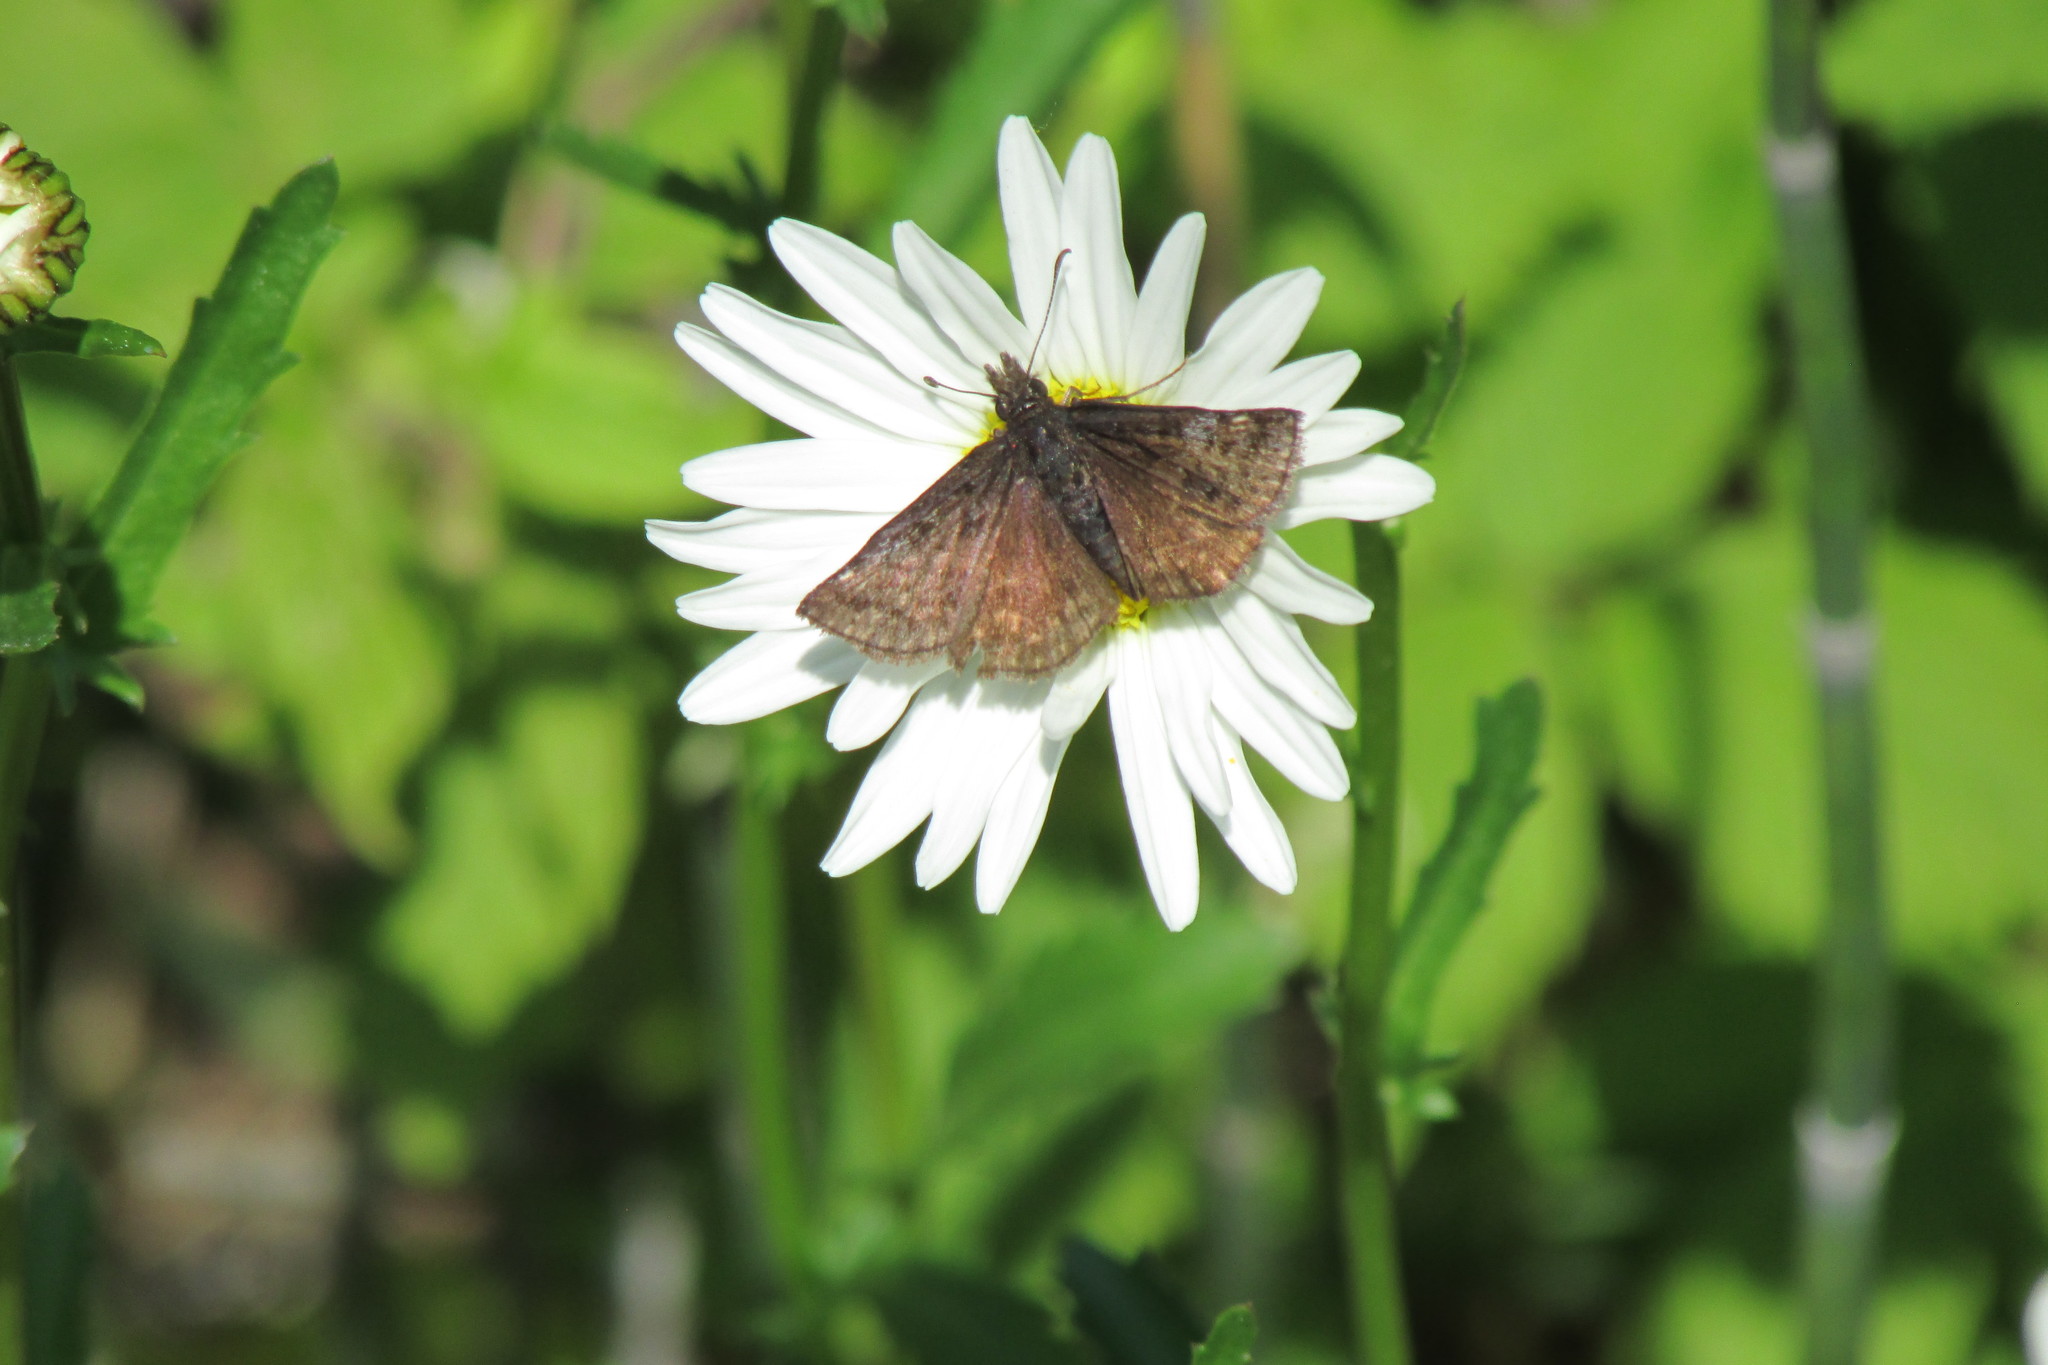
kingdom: Animalia
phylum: Arthropoda
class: Insecta
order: Lepidoptera
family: Hesperiidae
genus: Erynnis
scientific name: Erynnis icelus
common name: Dreamy duskywing
